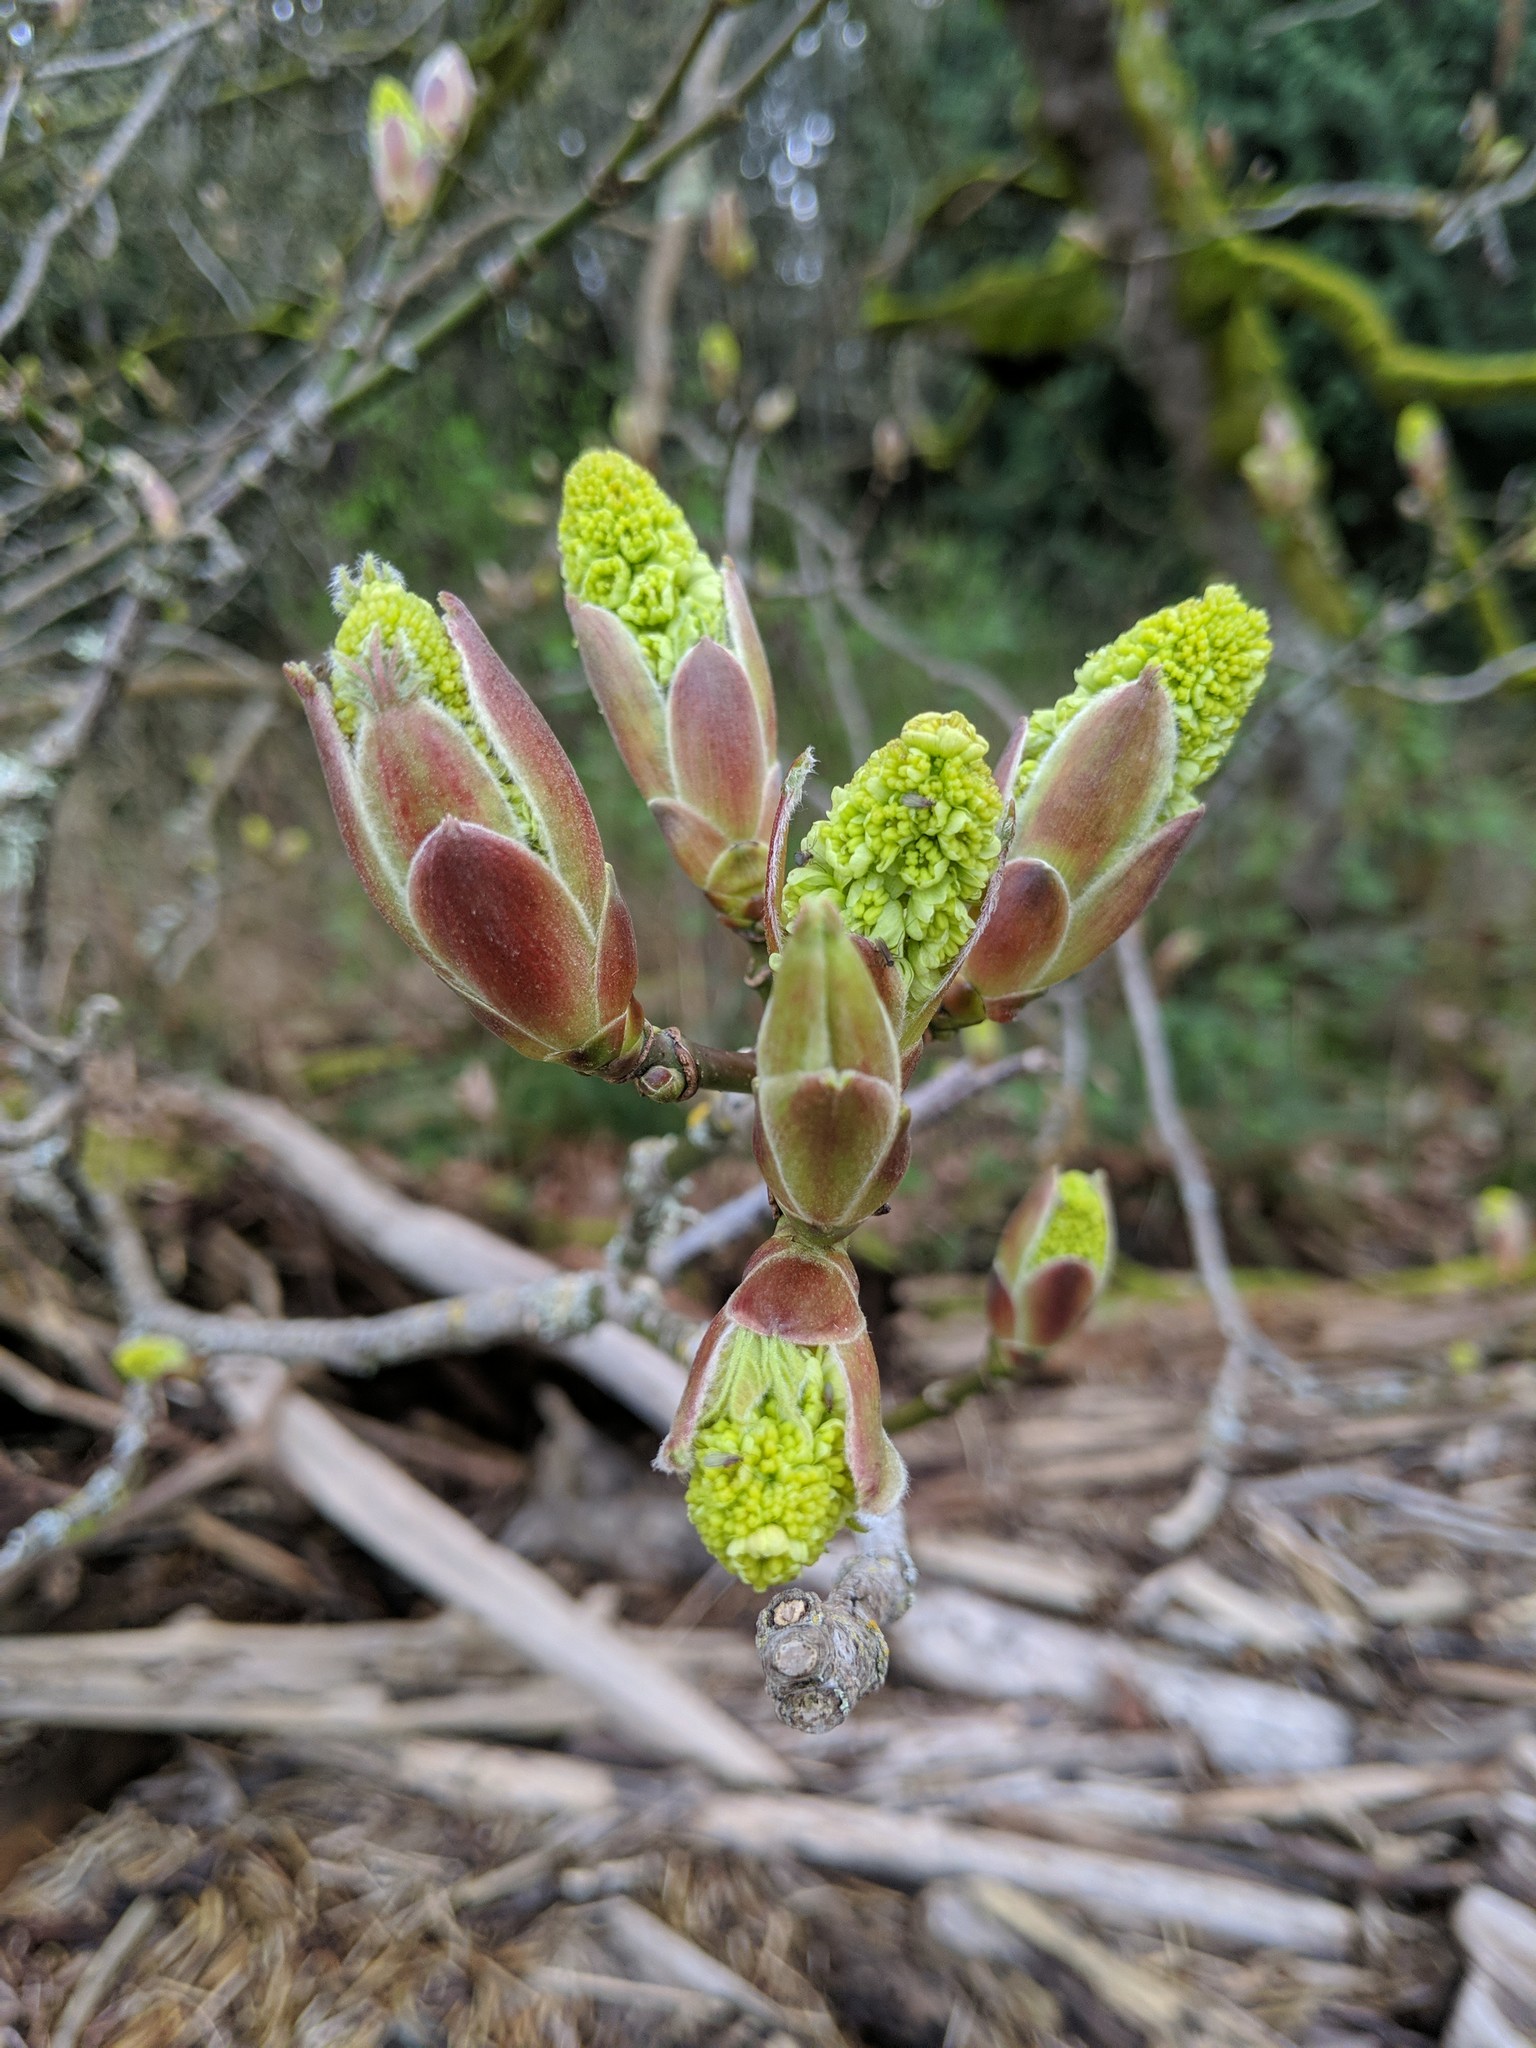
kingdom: Plantae
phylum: Tracheophyta
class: Magnoliopsida
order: Sapindales
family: Sapindaceae
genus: Acer
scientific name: Acer macrophyllum
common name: Oregon maple
